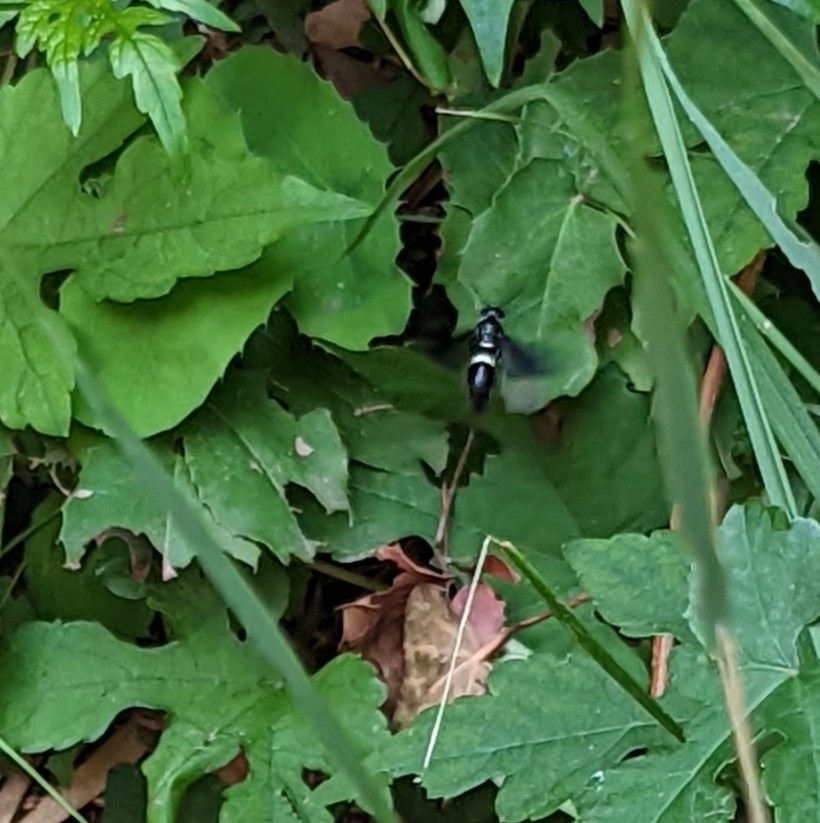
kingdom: Animalia
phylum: Arthropoda
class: Insecta
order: Hymenoptera
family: Eumenidae
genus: Monobia
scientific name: Monobia quadridens
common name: Four-toothed mason wasp
